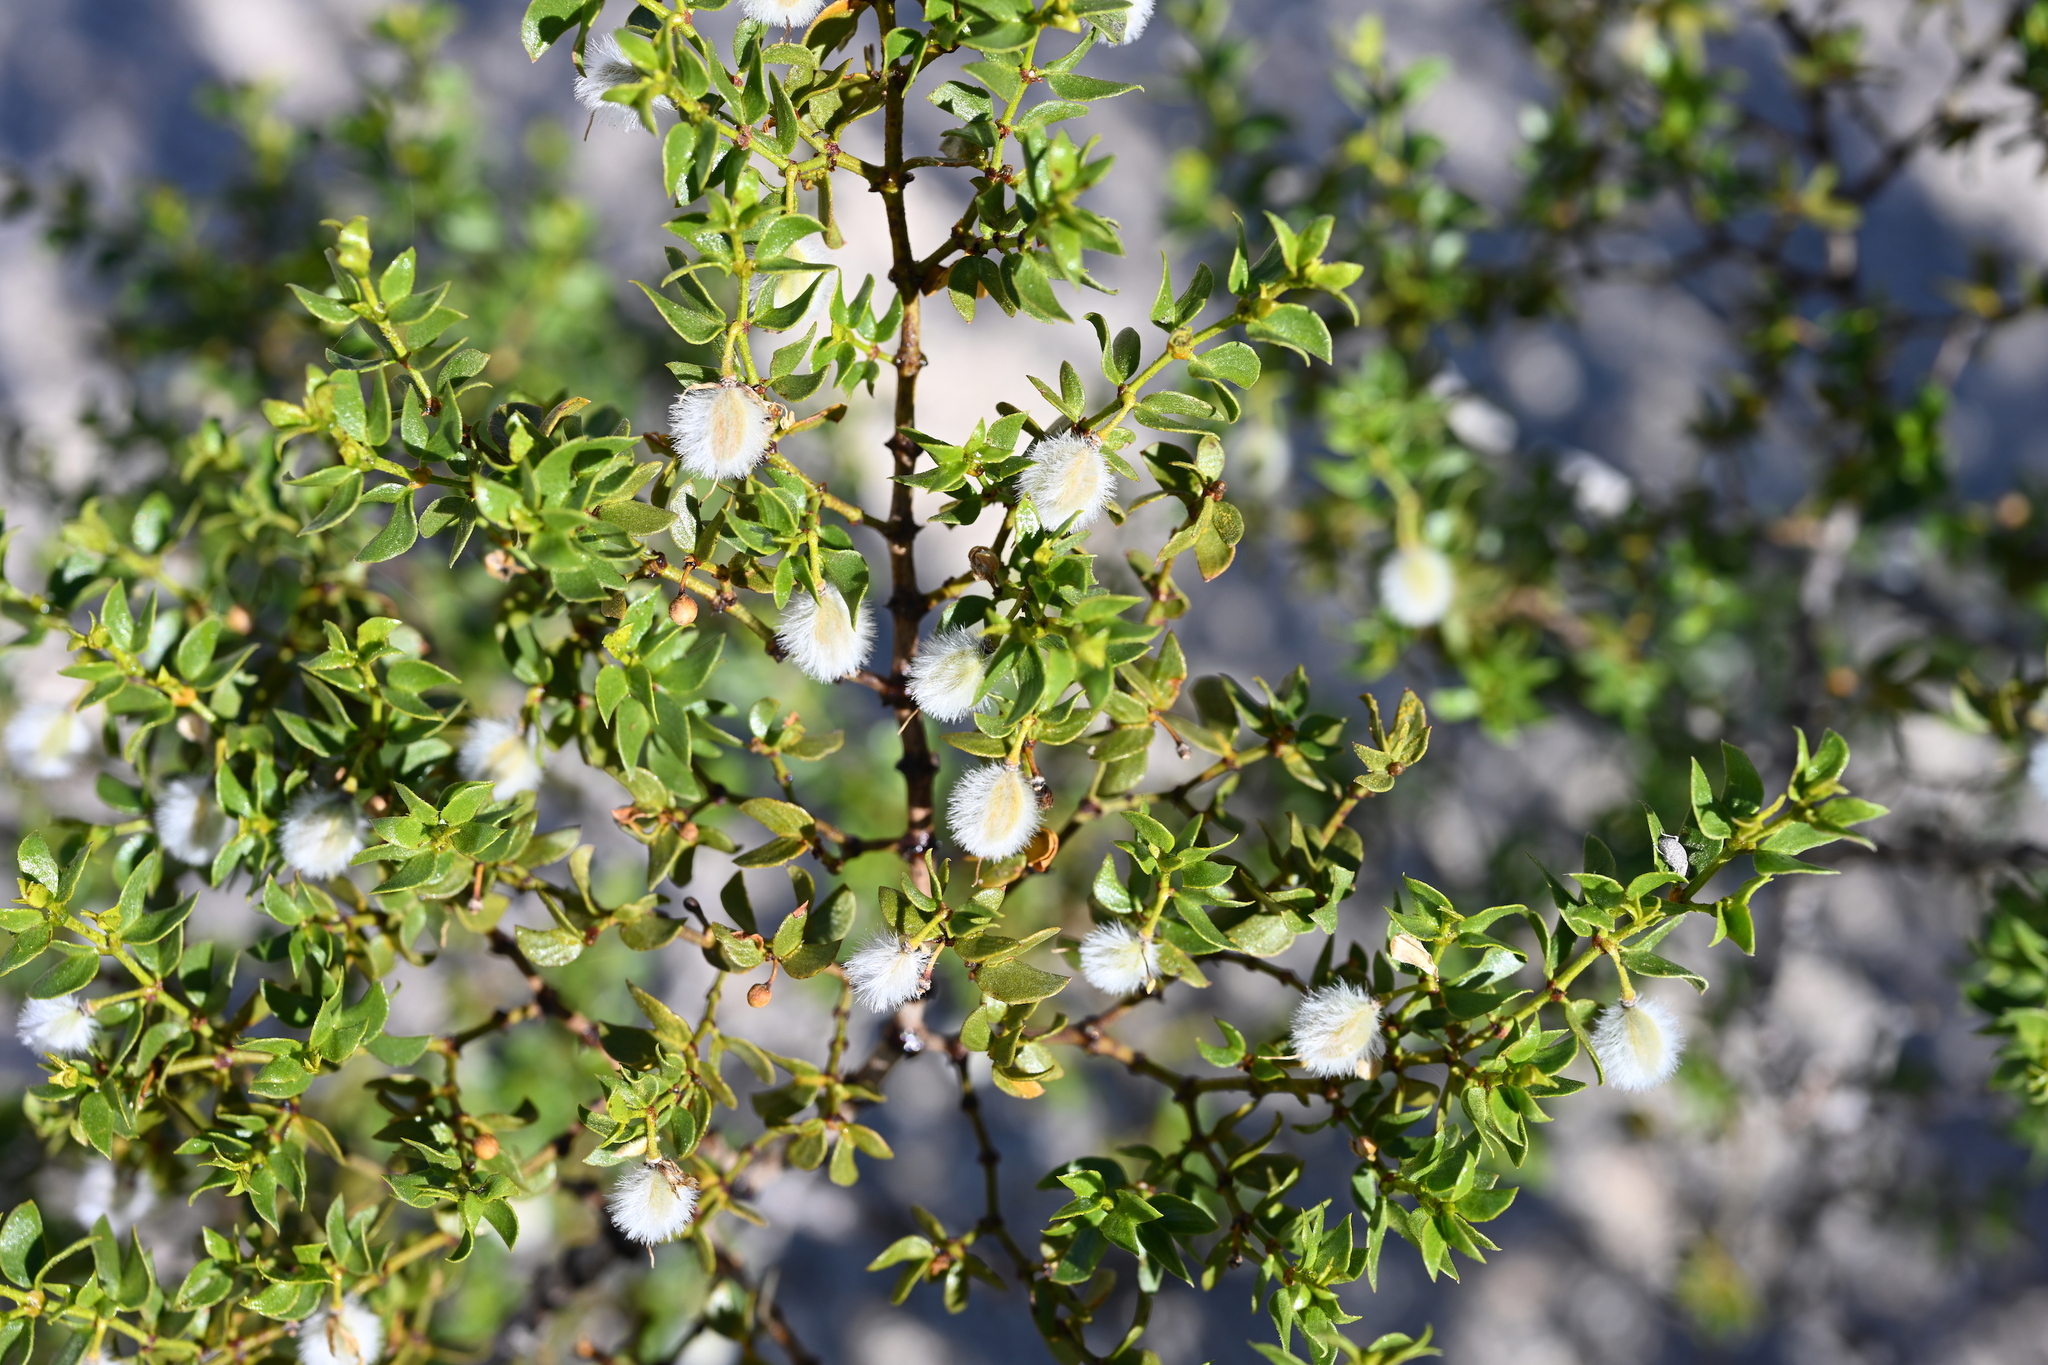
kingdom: Plantae
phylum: Tracheophyta
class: Magnoliopsida
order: Zygophyllales
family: Zygophyllaceae
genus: Larrea
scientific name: Larrea tridentata
